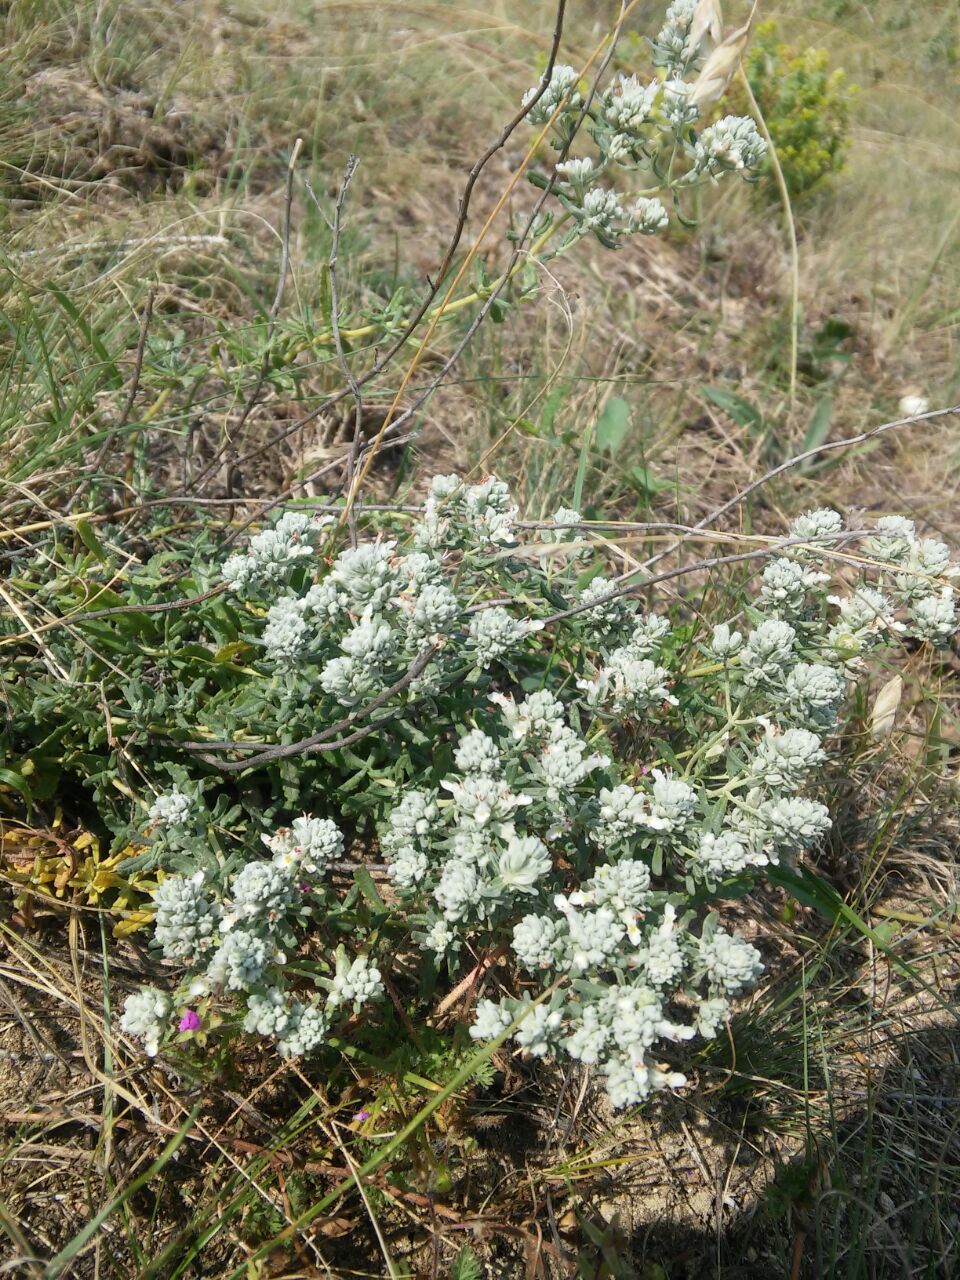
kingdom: Plantae
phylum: Tracheophyta
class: Magnoliopsida
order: Lamiales
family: Lamiaceae
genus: Teucrium
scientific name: Teucrium polium
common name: Poley
